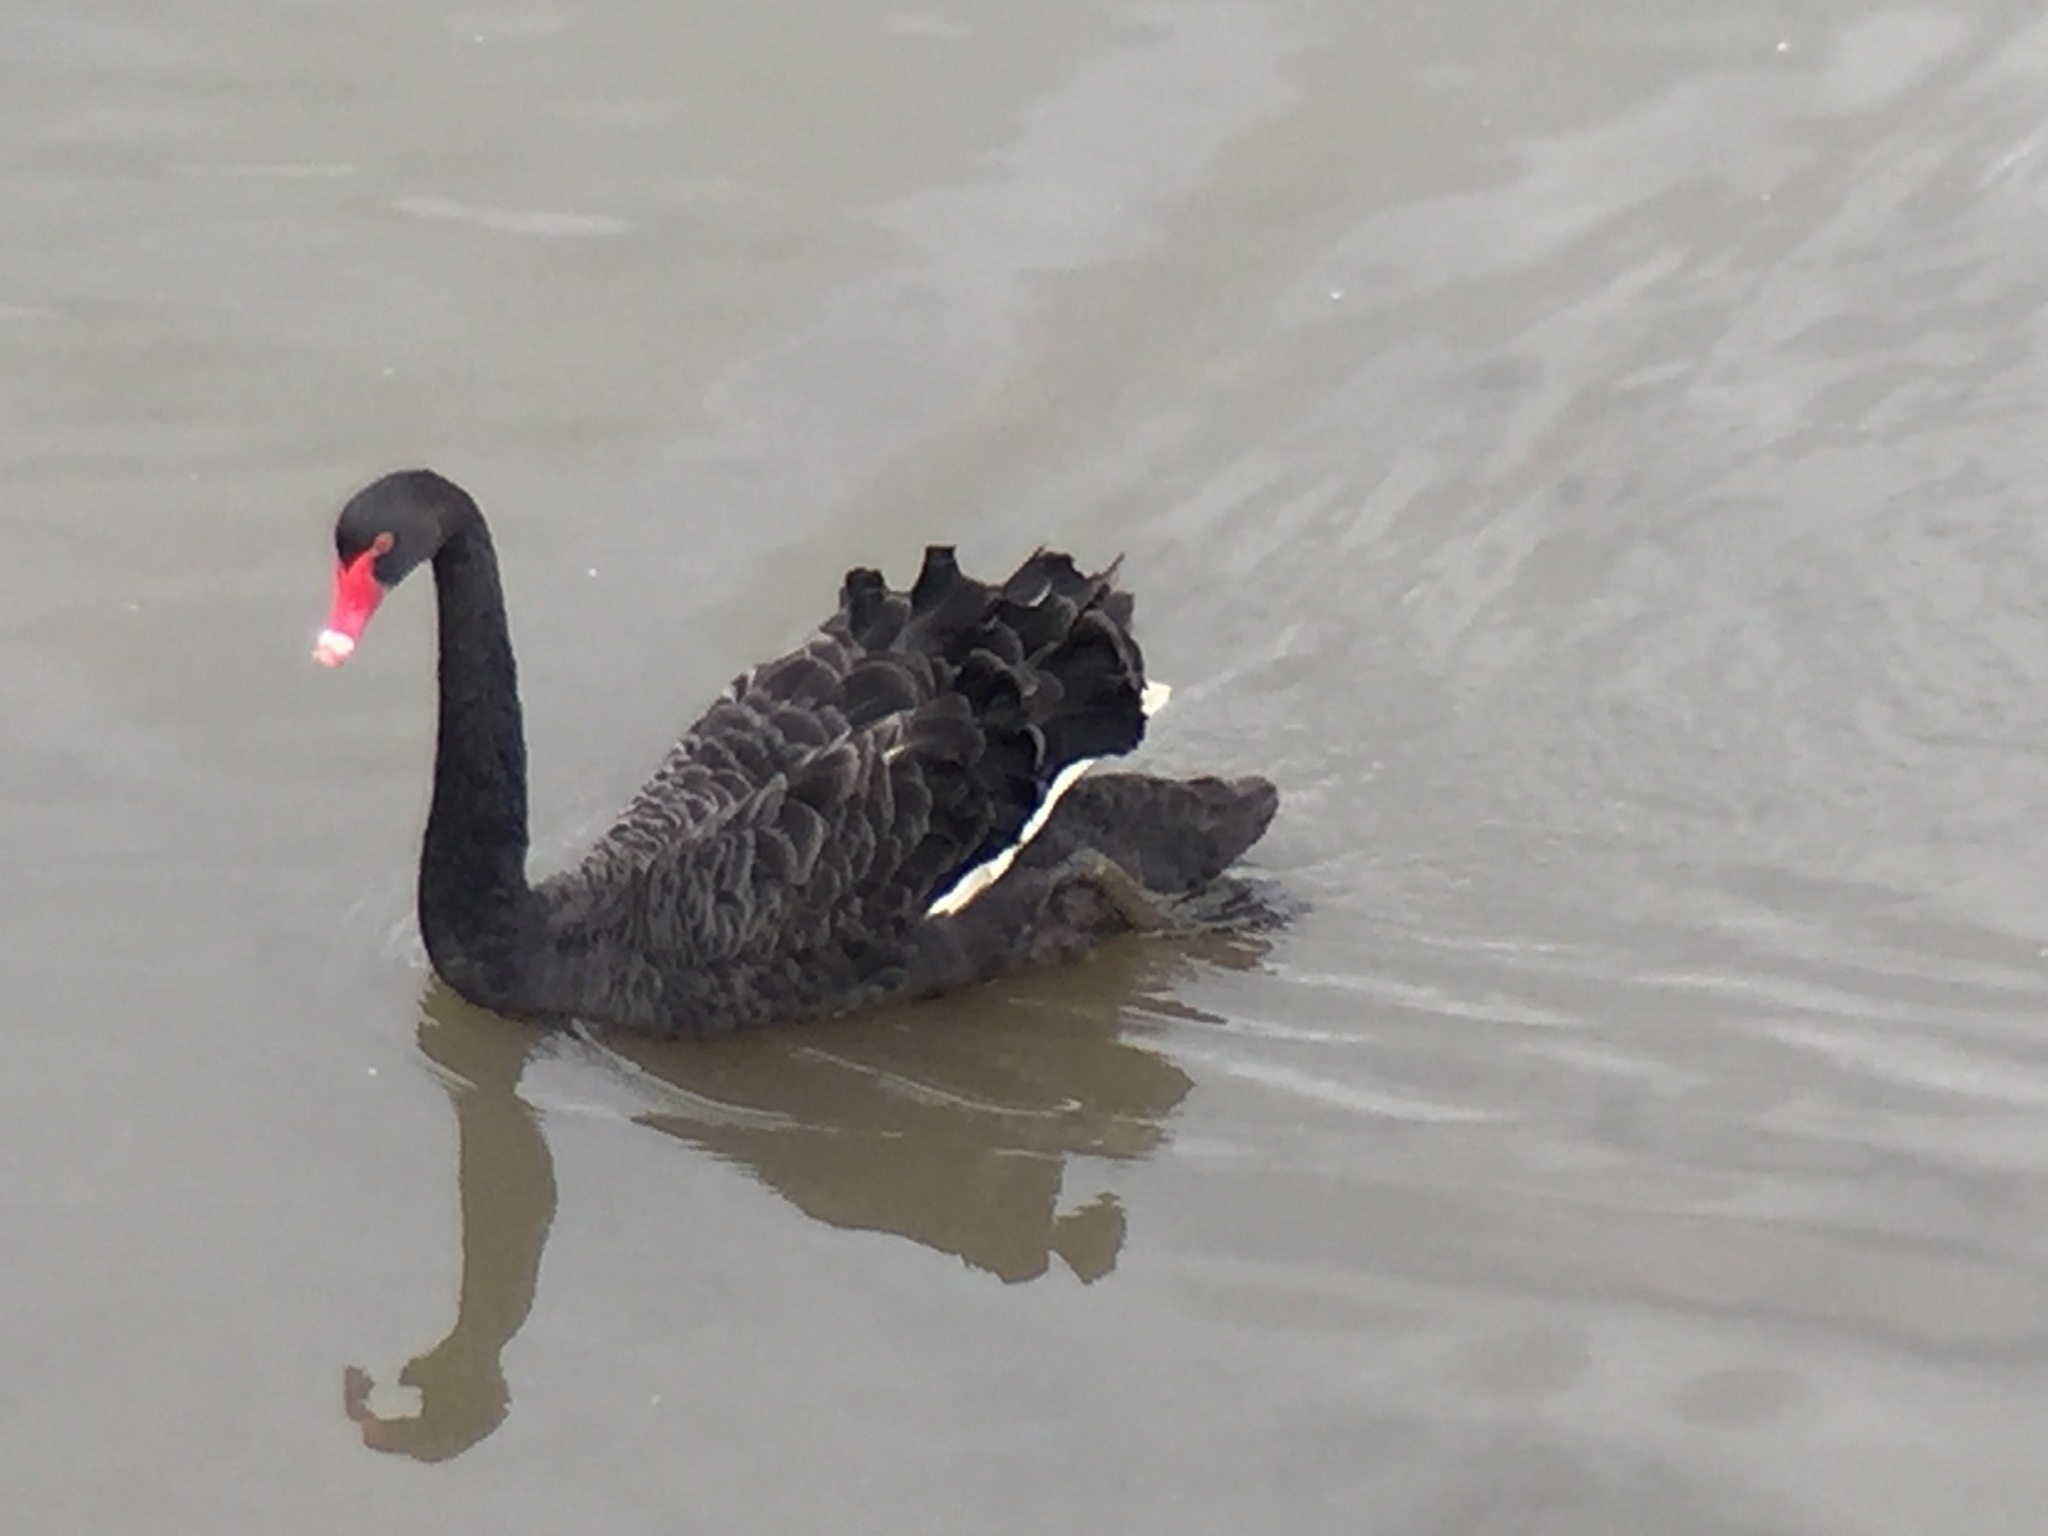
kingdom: Animalia
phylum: Chordata
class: Aves
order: Anseriformes
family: Anatidae
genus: Cygnus
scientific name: Cygnus atratus
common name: Black swan
